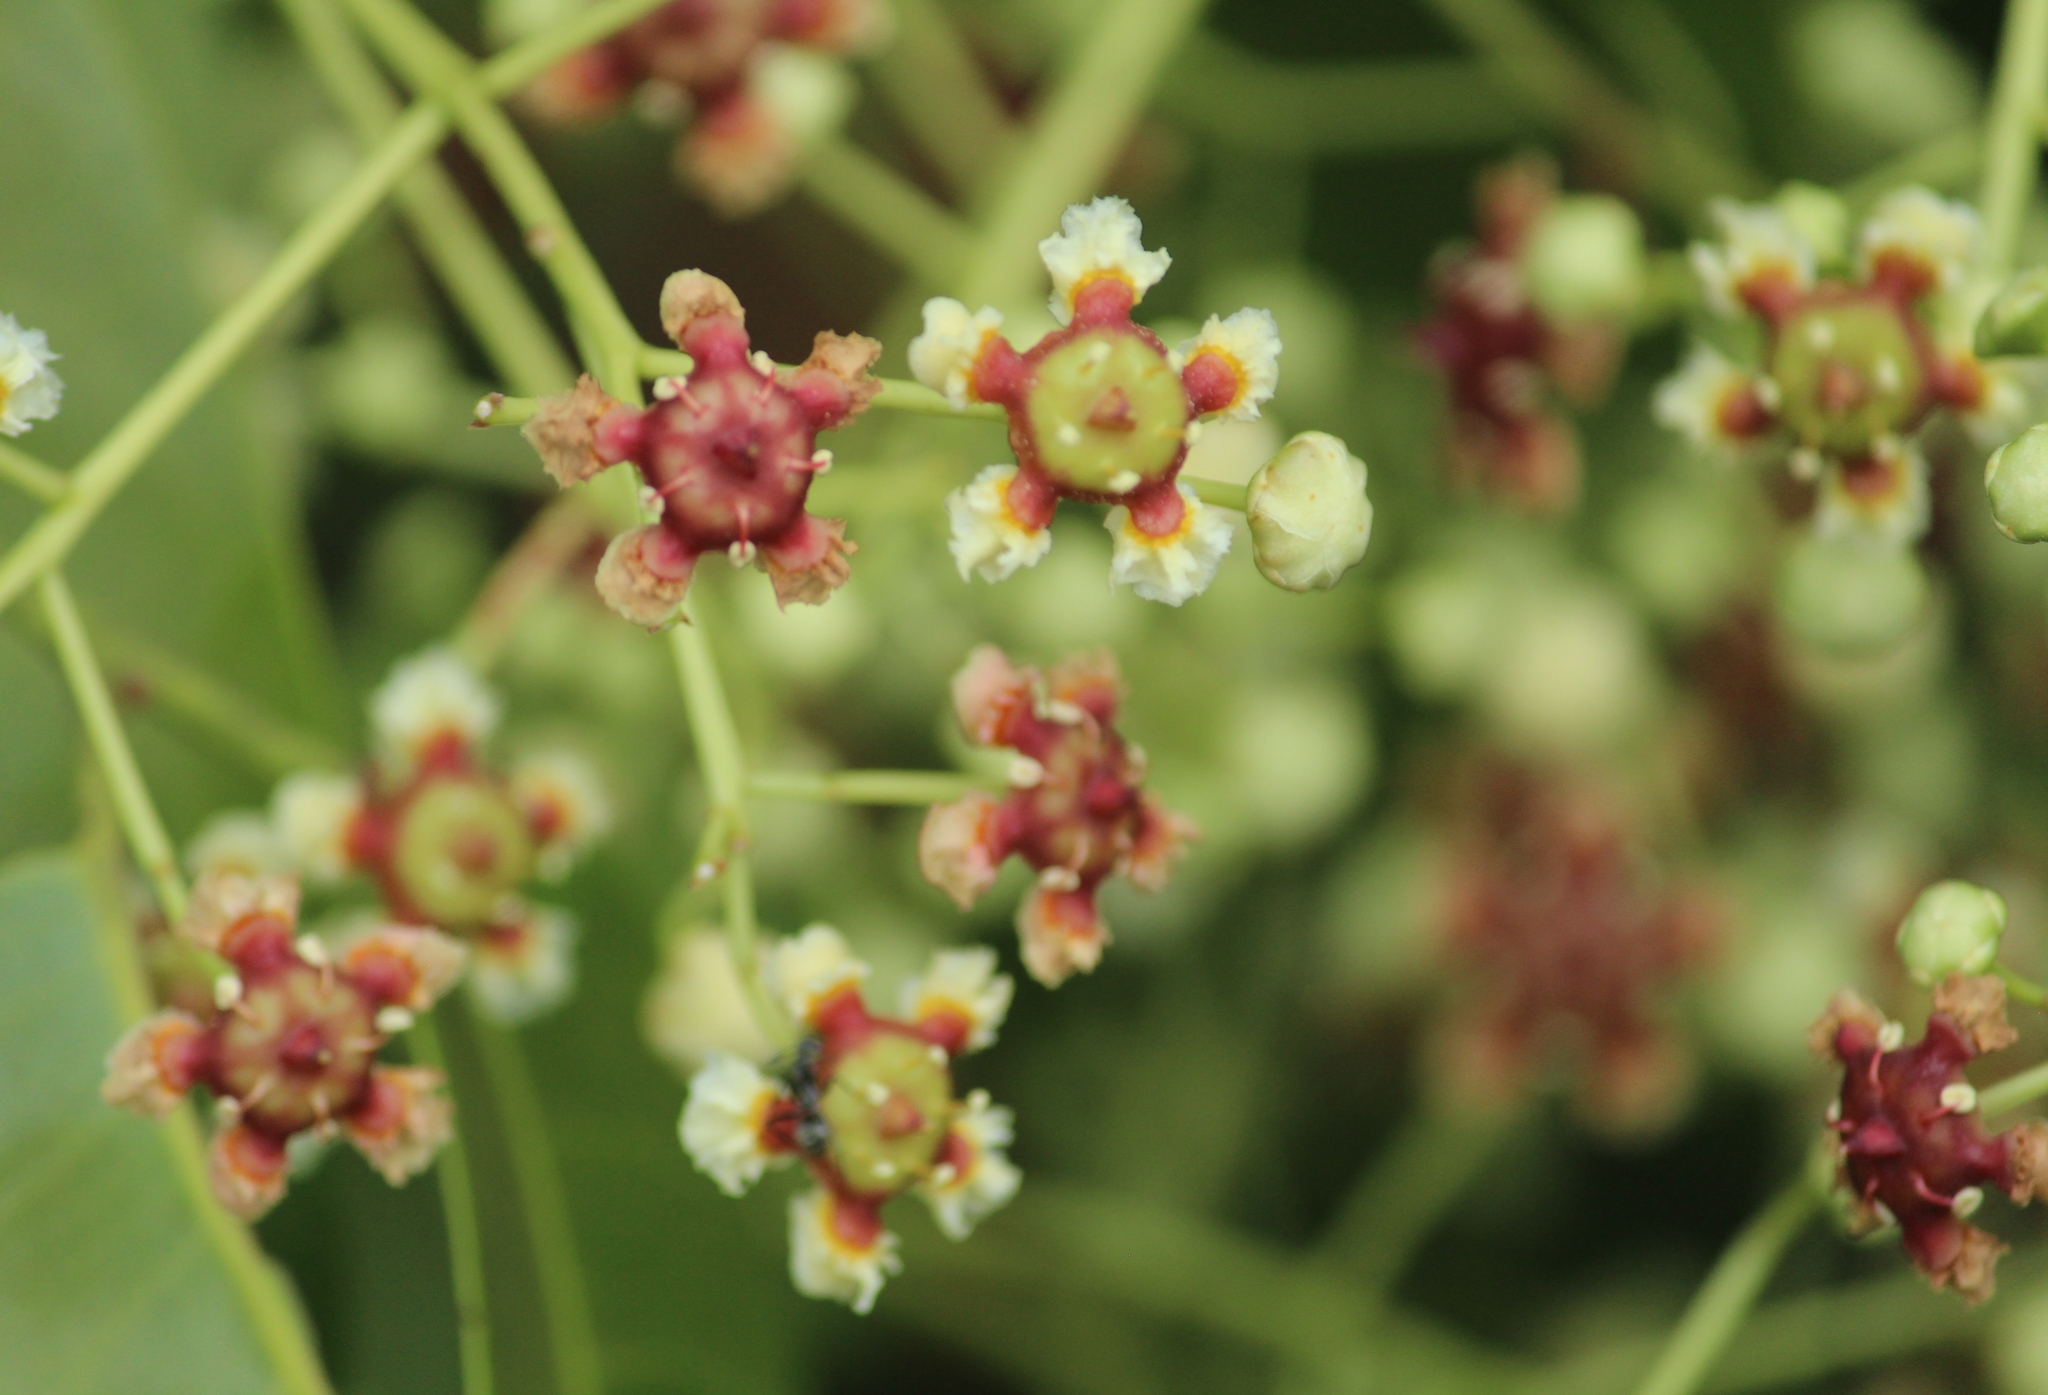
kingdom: Plantae
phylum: Tracheophyta
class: Magnoliopsida
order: Celastrales
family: Celastraceae
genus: Lophopetalum
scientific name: Lophopetalum wightianum
